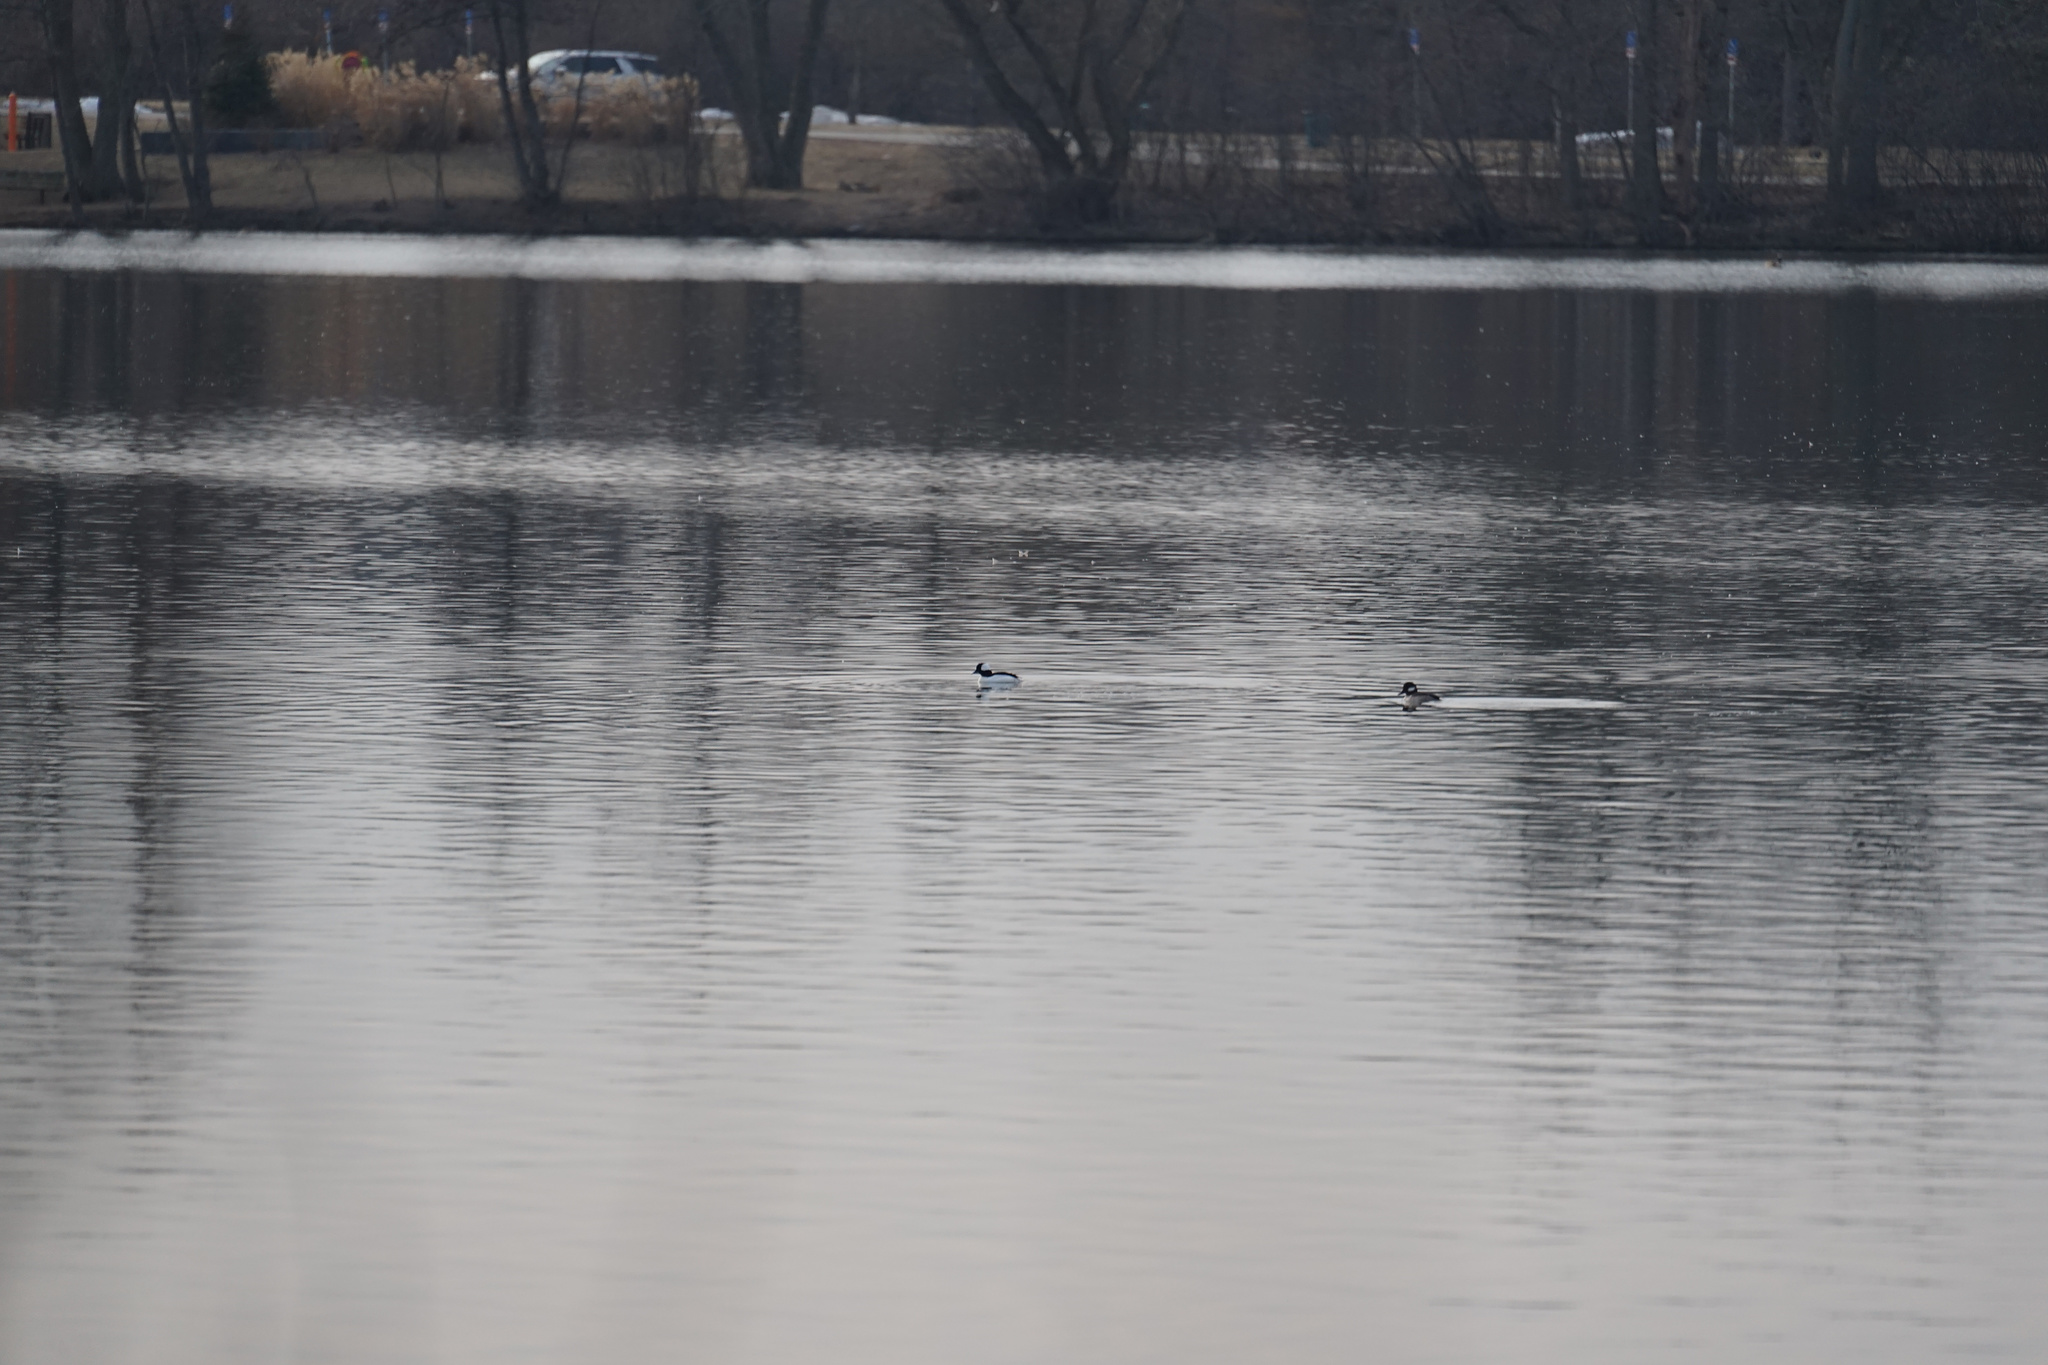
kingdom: Animalia
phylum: Chordata
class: Aves
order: Anseriformes
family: Anatidae
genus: Bucephala
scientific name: Bucephala albeola
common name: Bufflehead
